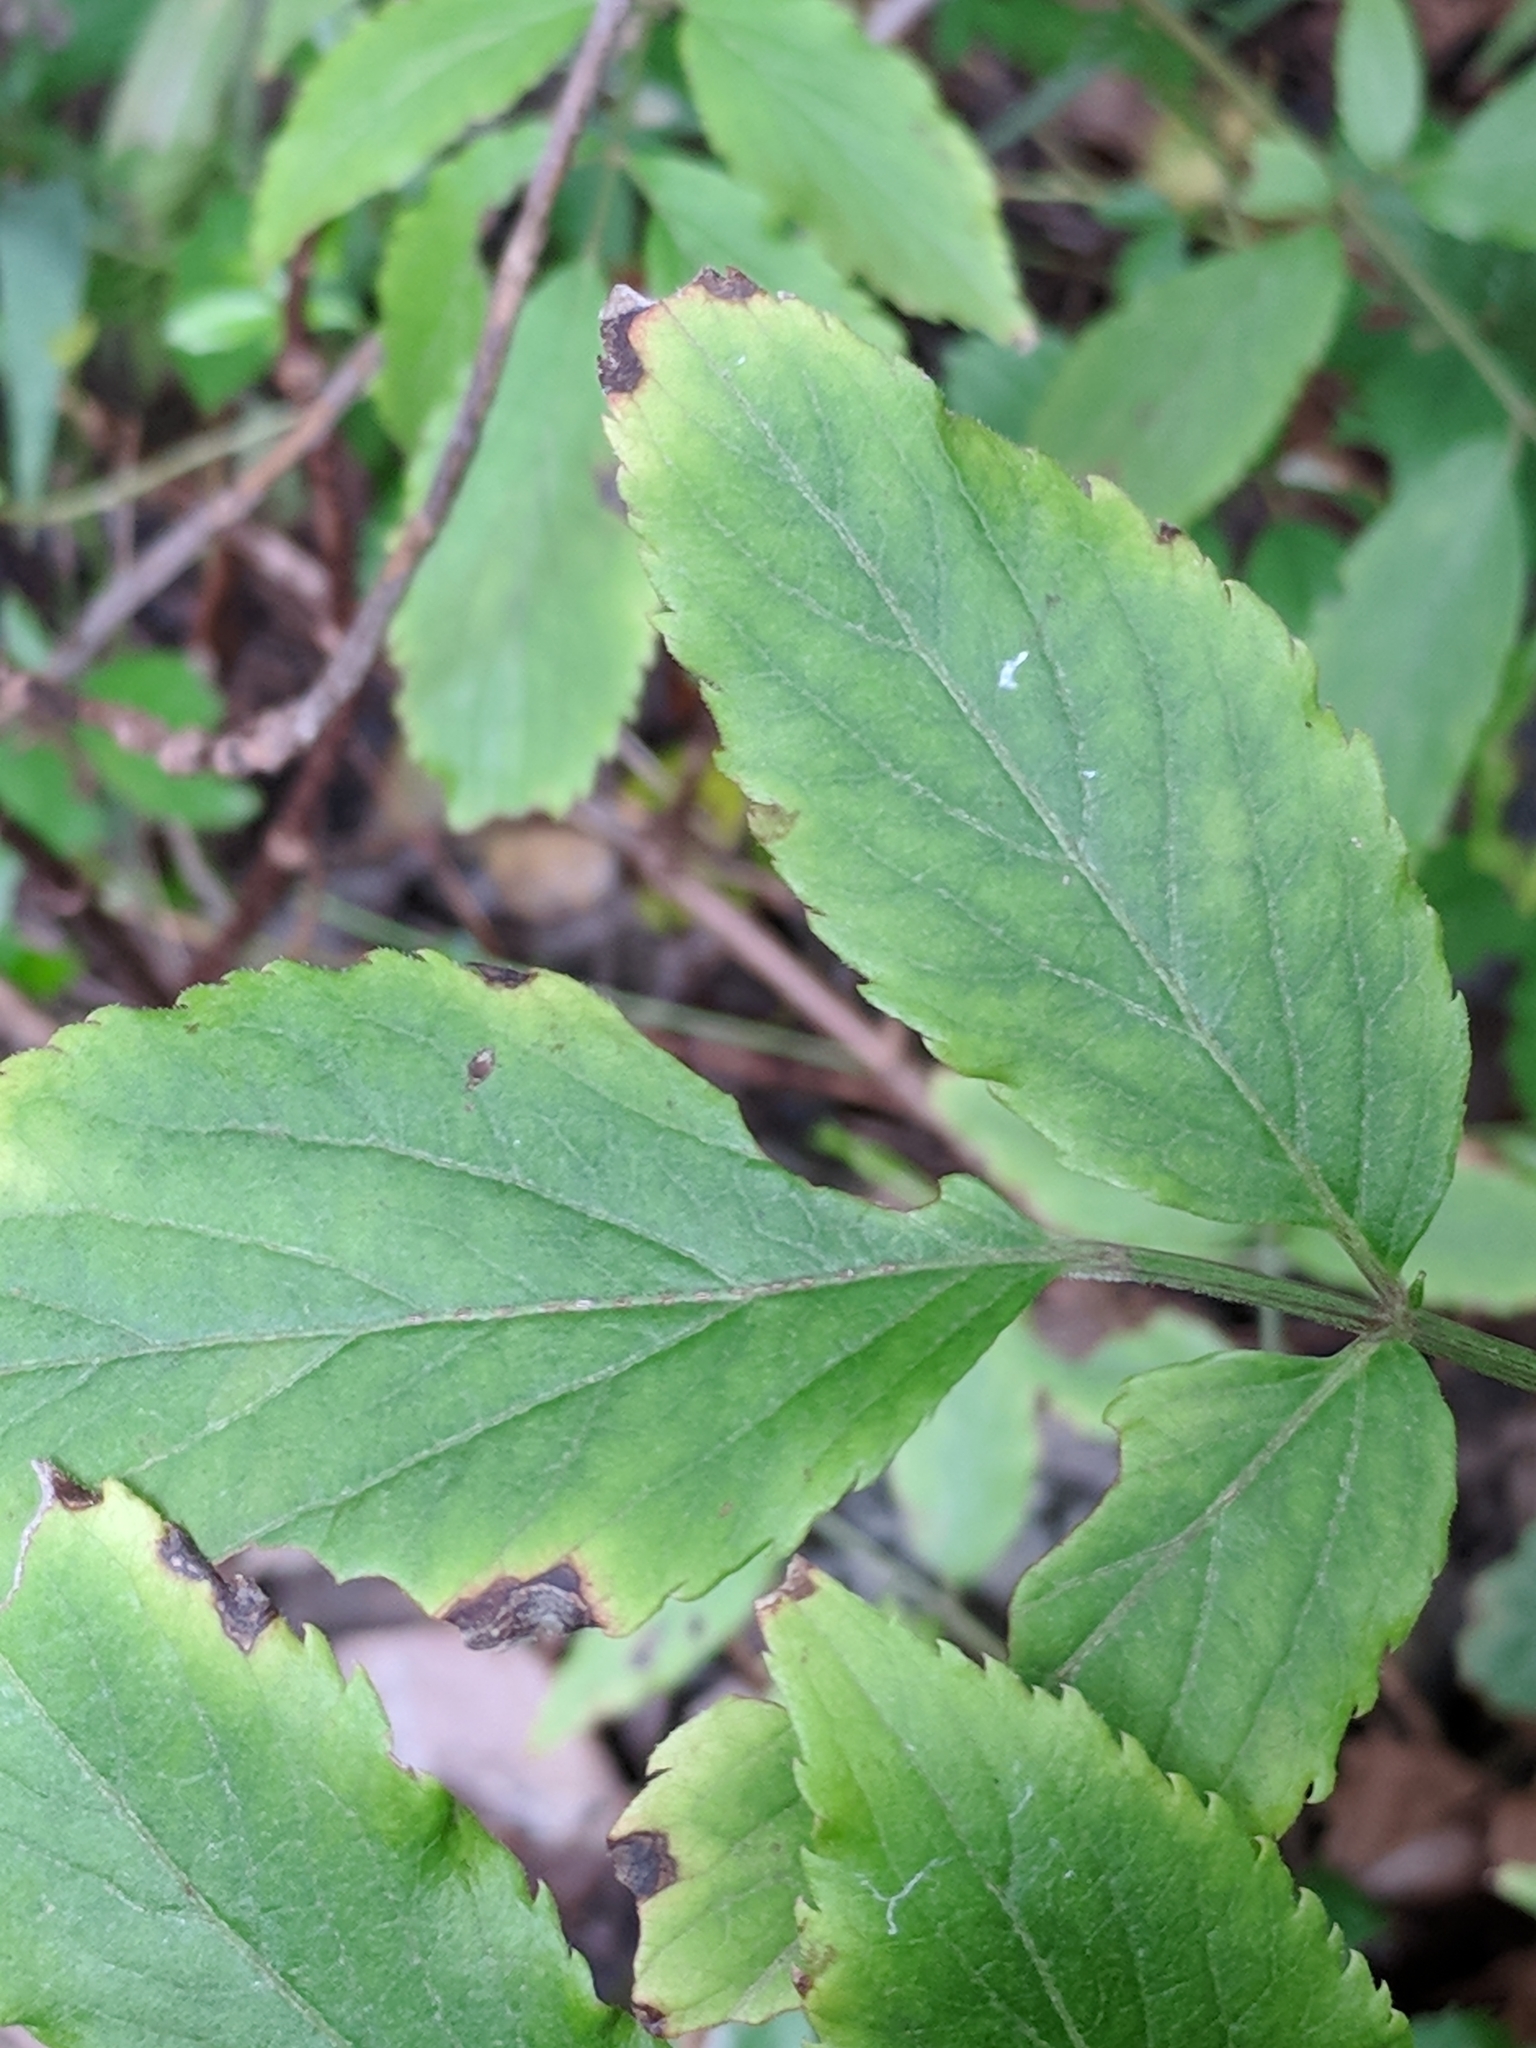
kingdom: Plantae
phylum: Tracheophyta
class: Magnoliopsida
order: Dipsacales
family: Viburnaceae
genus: Sambucus
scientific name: Sambucus canadensis
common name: American elder
